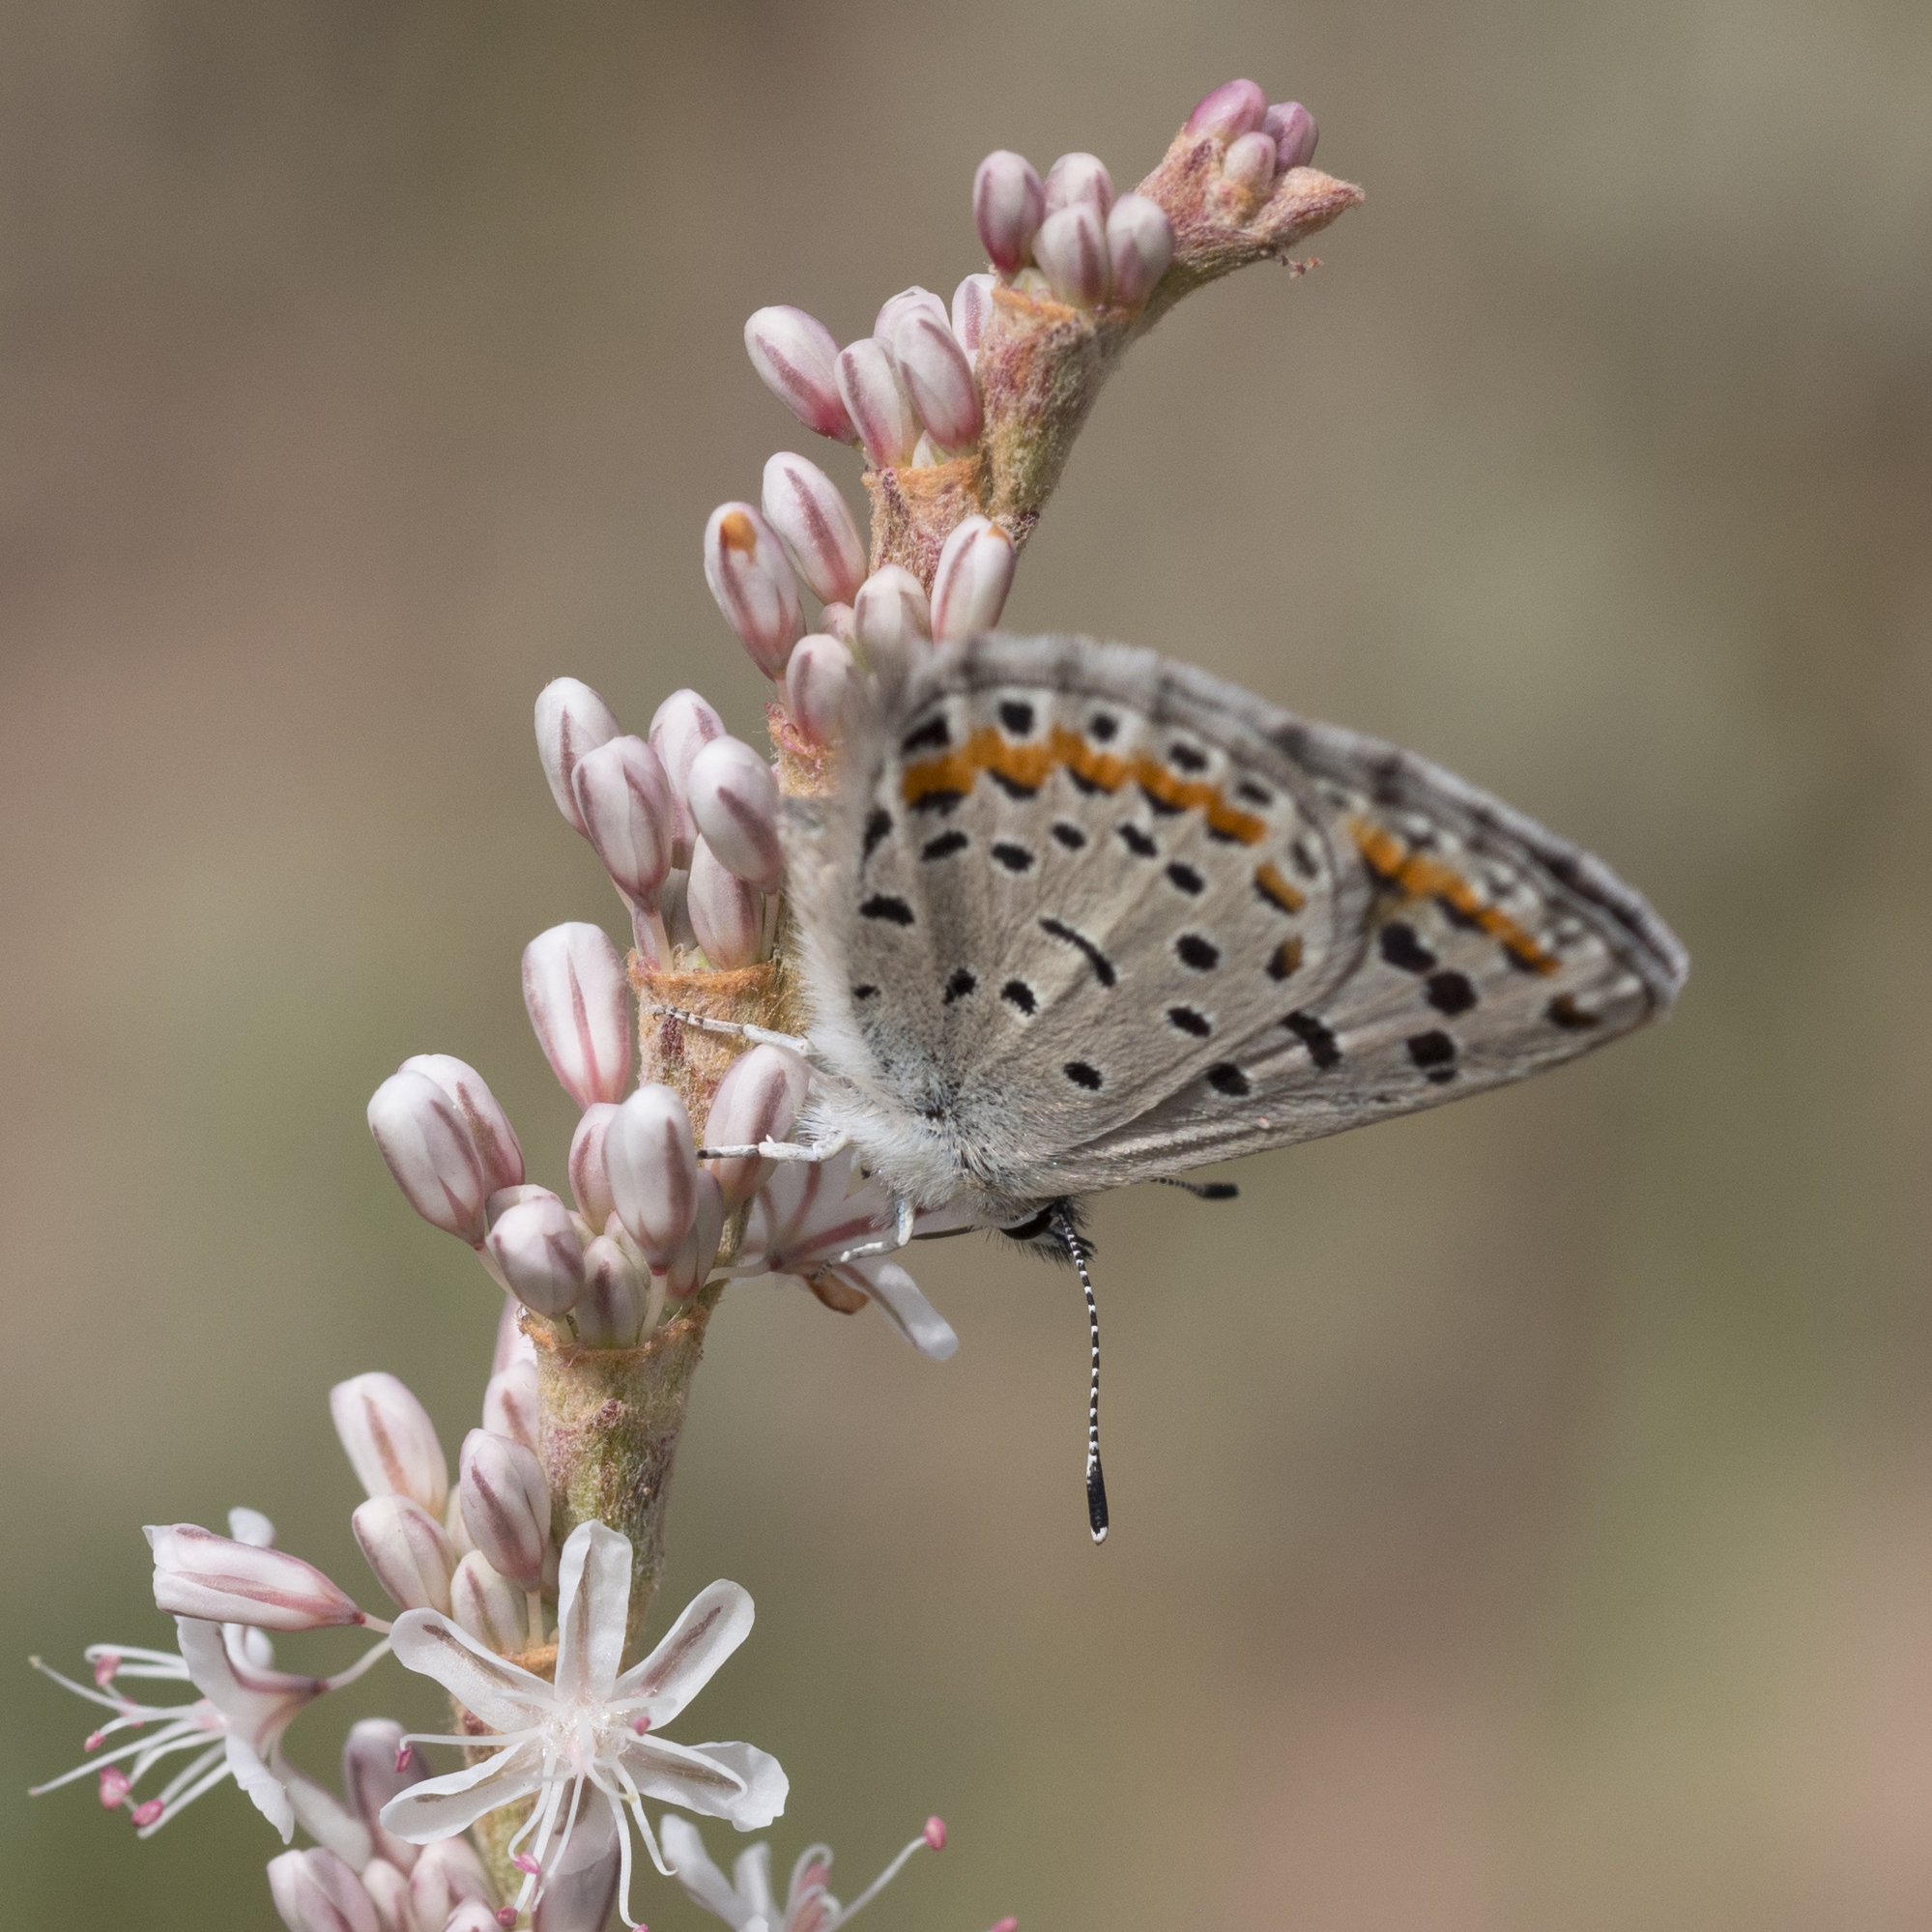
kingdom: Animalia
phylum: Arthropoda
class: Insecta
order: Lepidoptera
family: Lycaenidae
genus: Euphilotes
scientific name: Euphilotes spaldingi
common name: Spalding's blue
